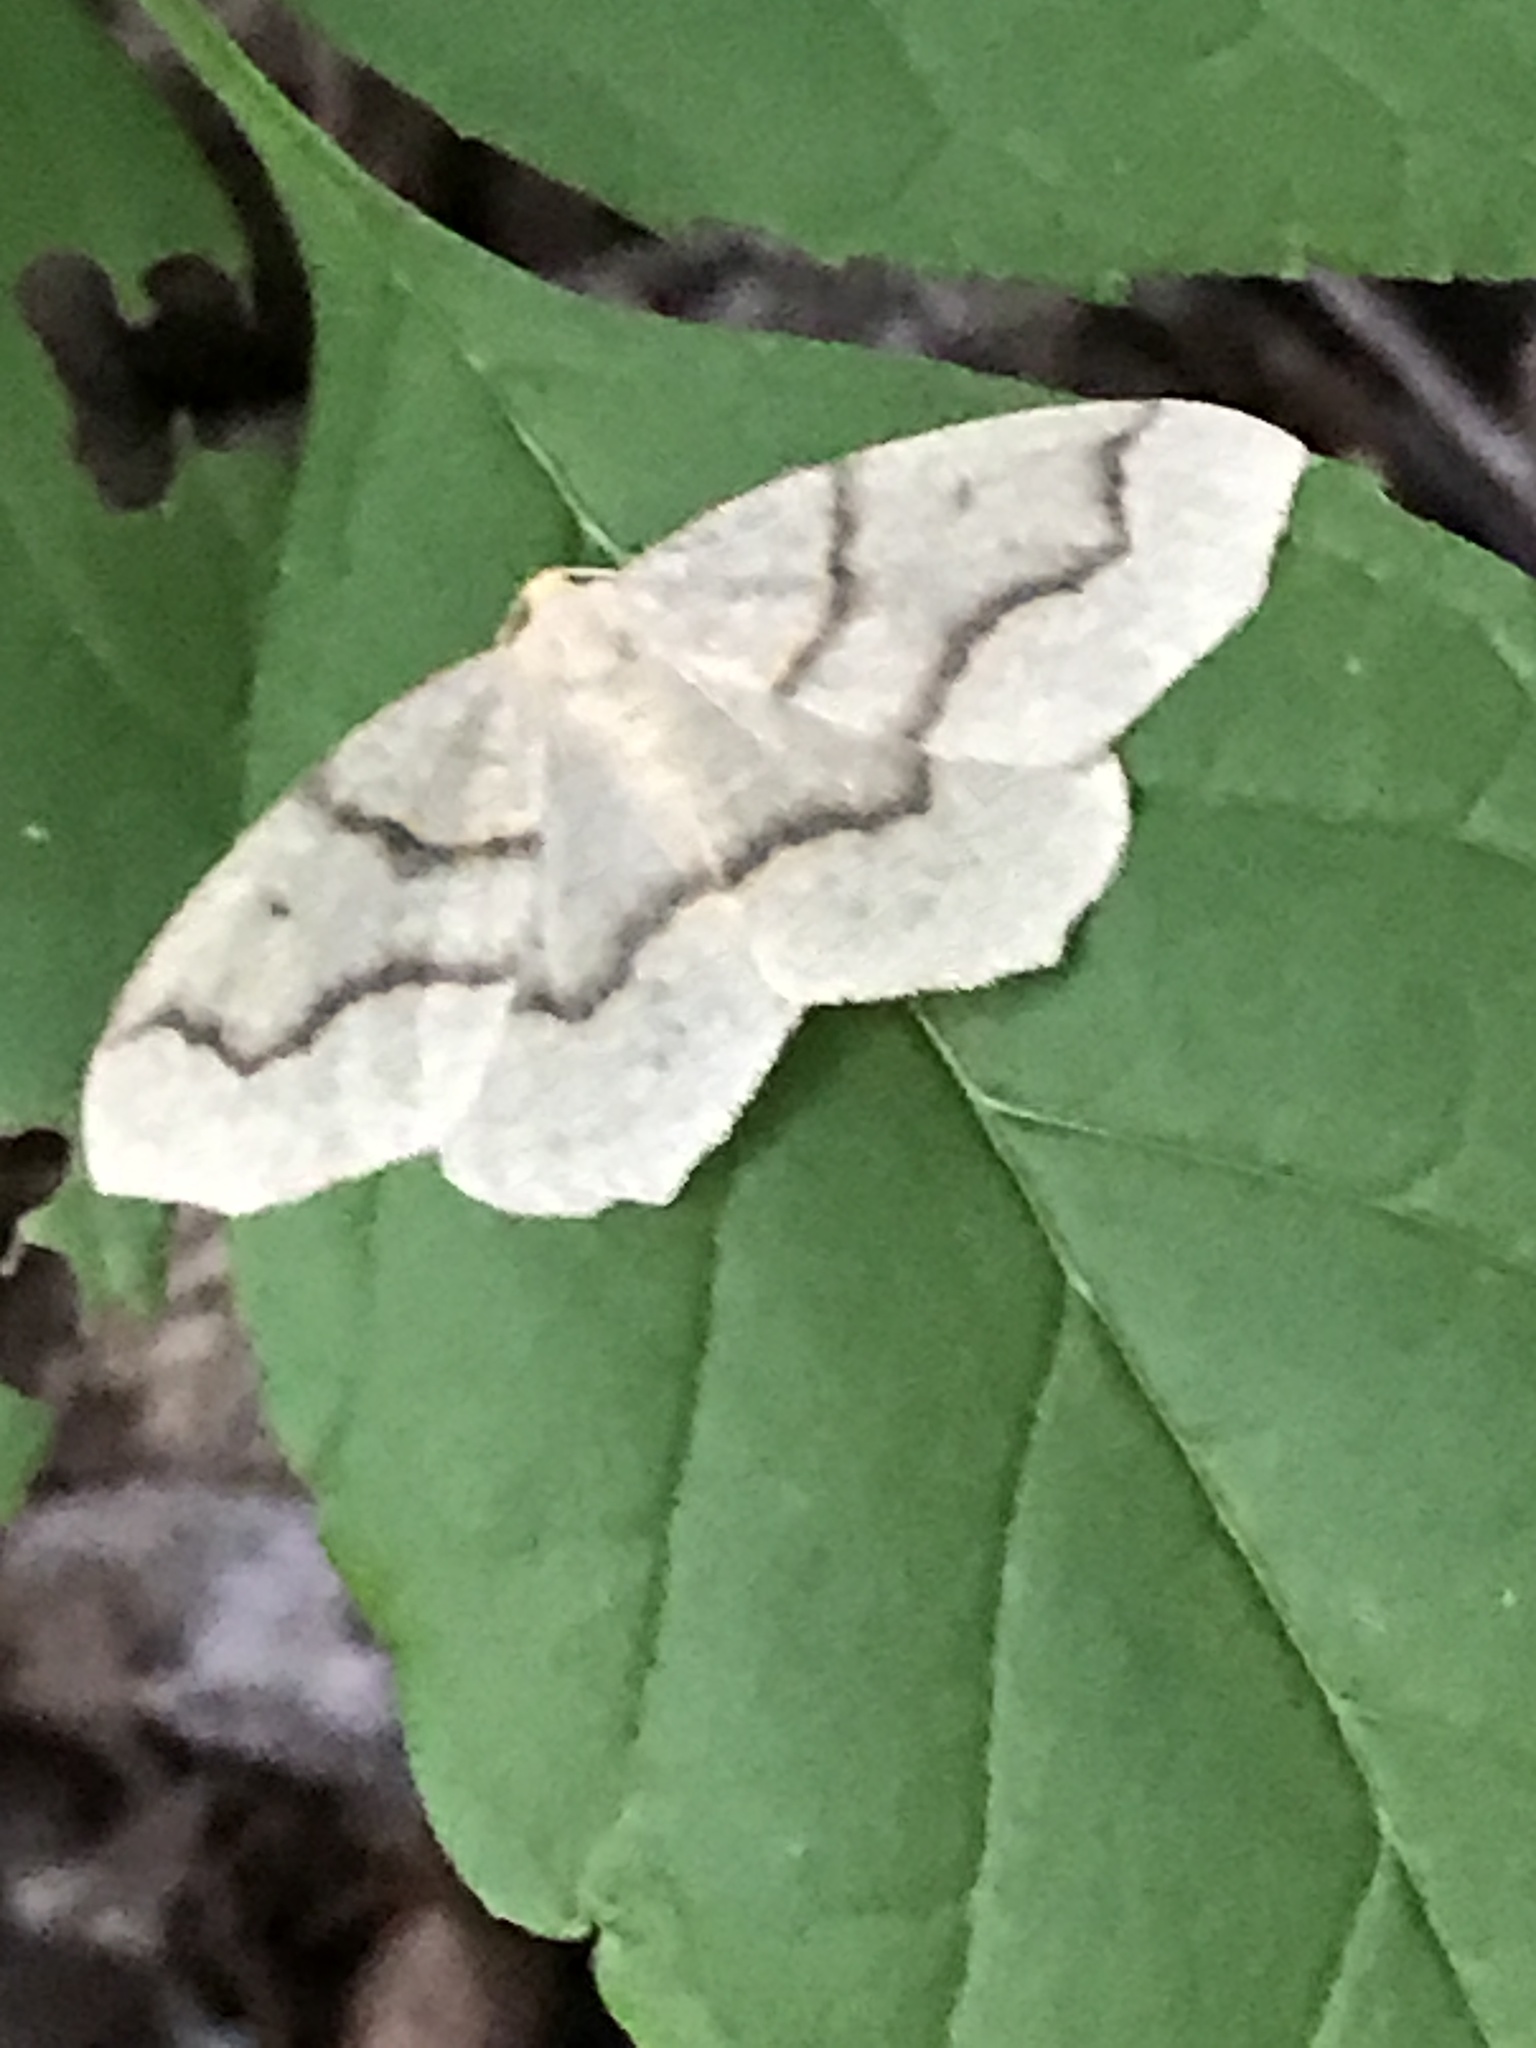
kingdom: Animalia
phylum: Arthropoda
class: Insecta
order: Lepidoptera
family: Geometridae
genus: Lambdina
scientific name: Lambdina fiscellaria
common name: Hemlock looper
